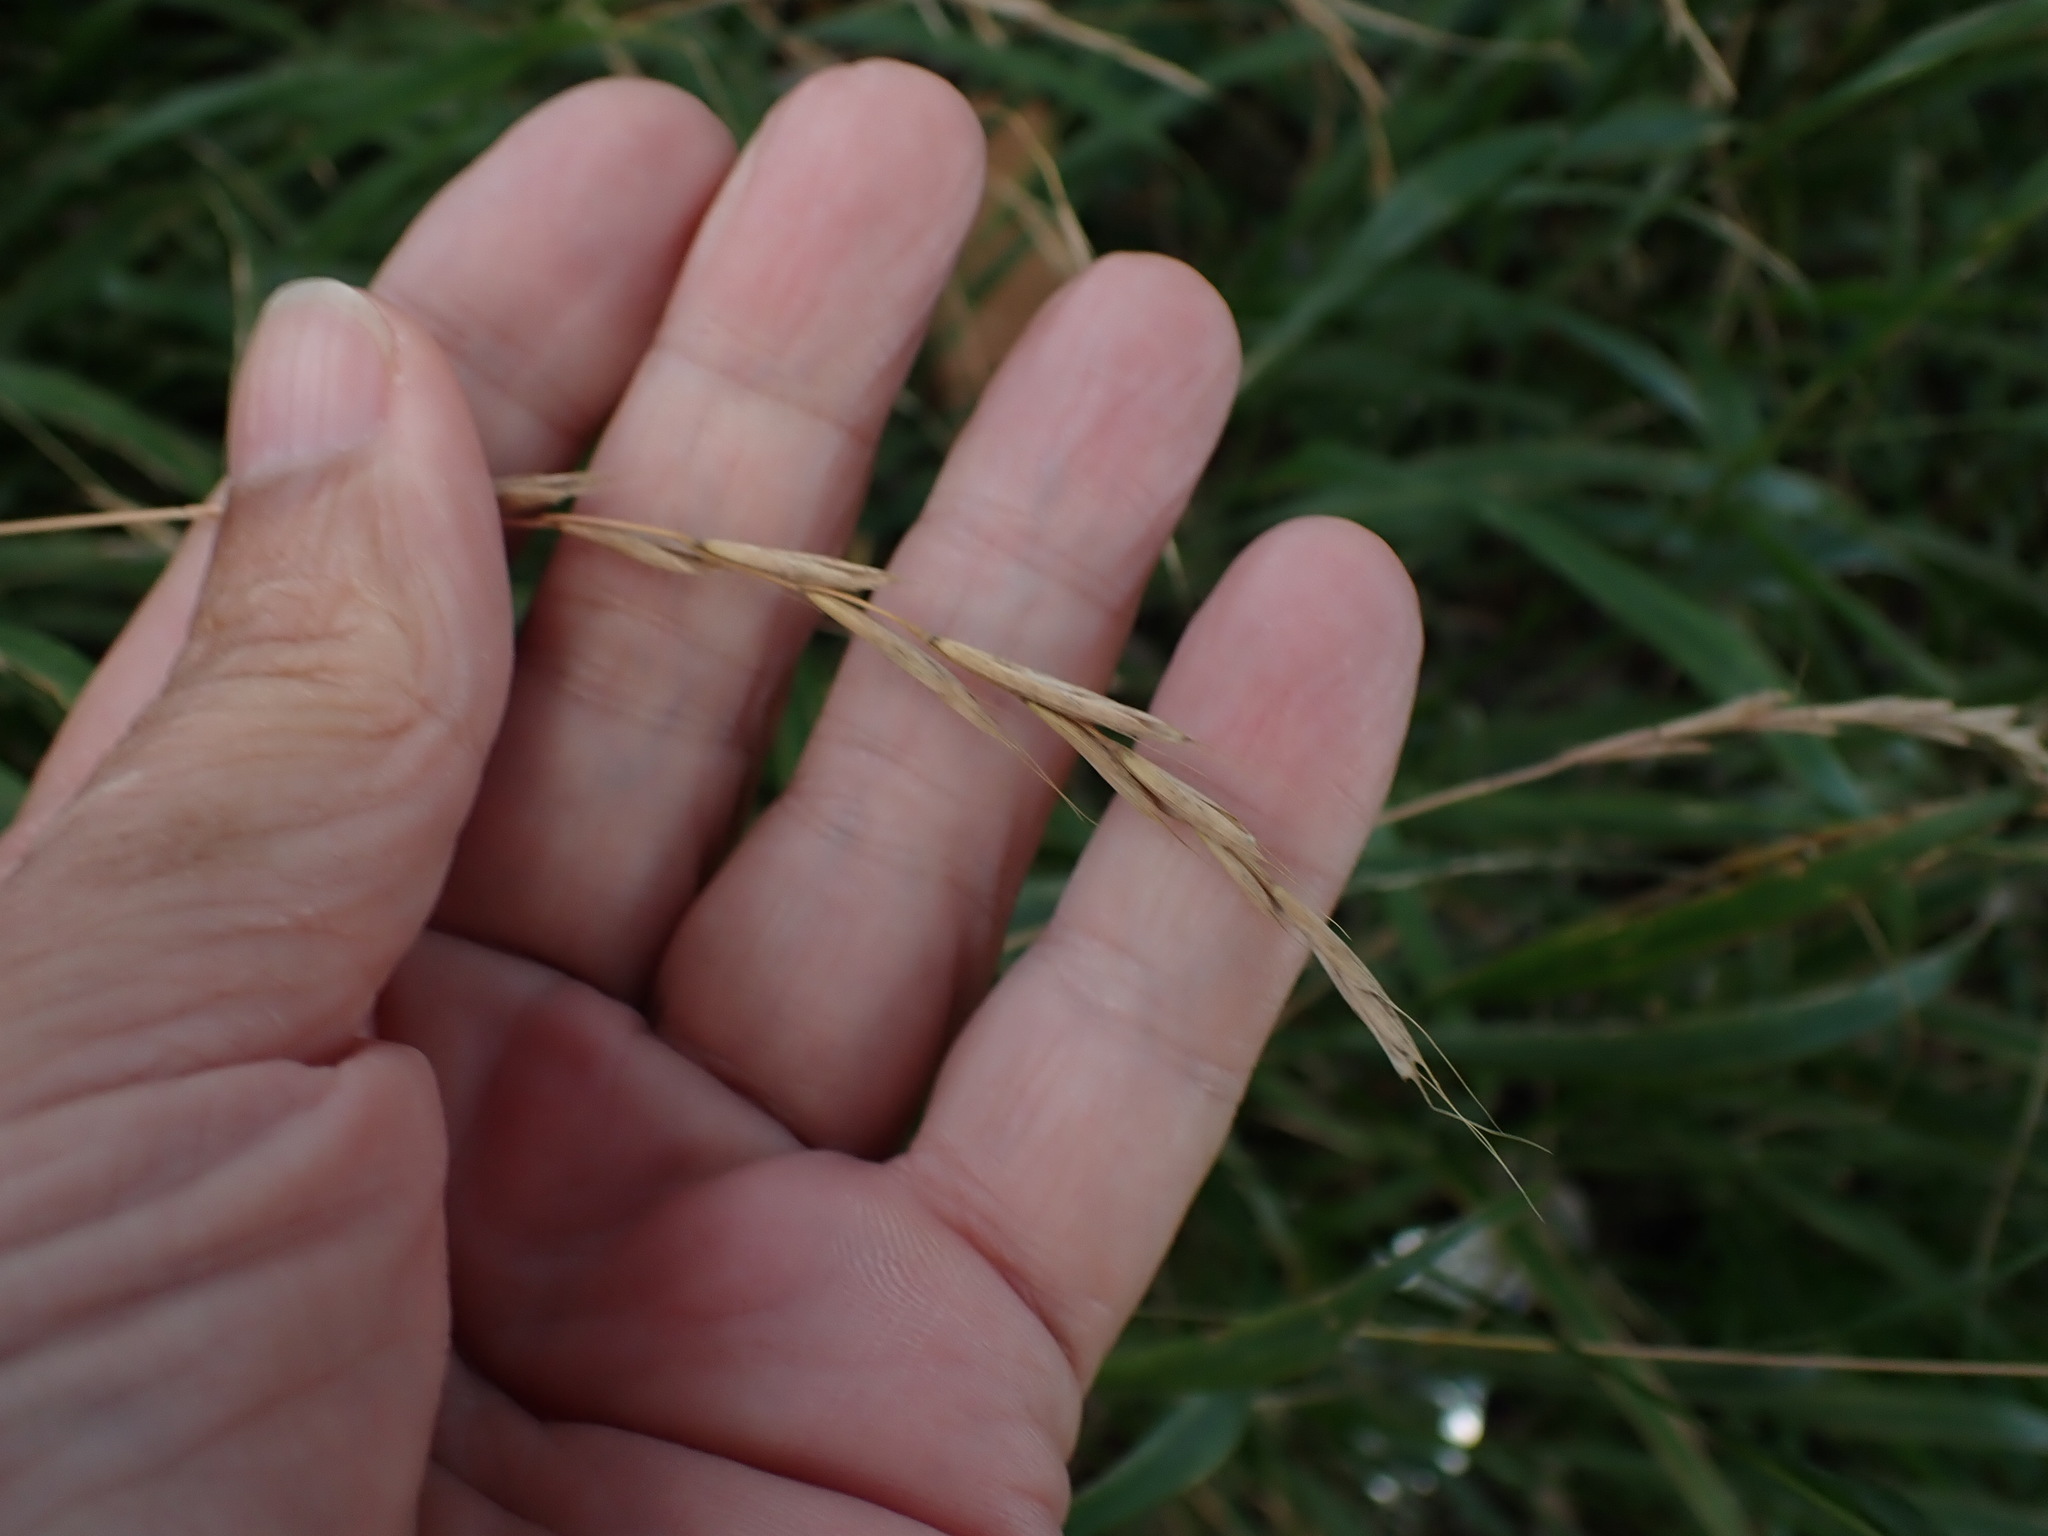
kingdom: Plantae
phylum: Tracheophyta
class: Liliopsida
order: Poales
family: Poaceae
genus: Brachypodium
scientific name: Brachypodium sylvaticum
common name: False-brome
